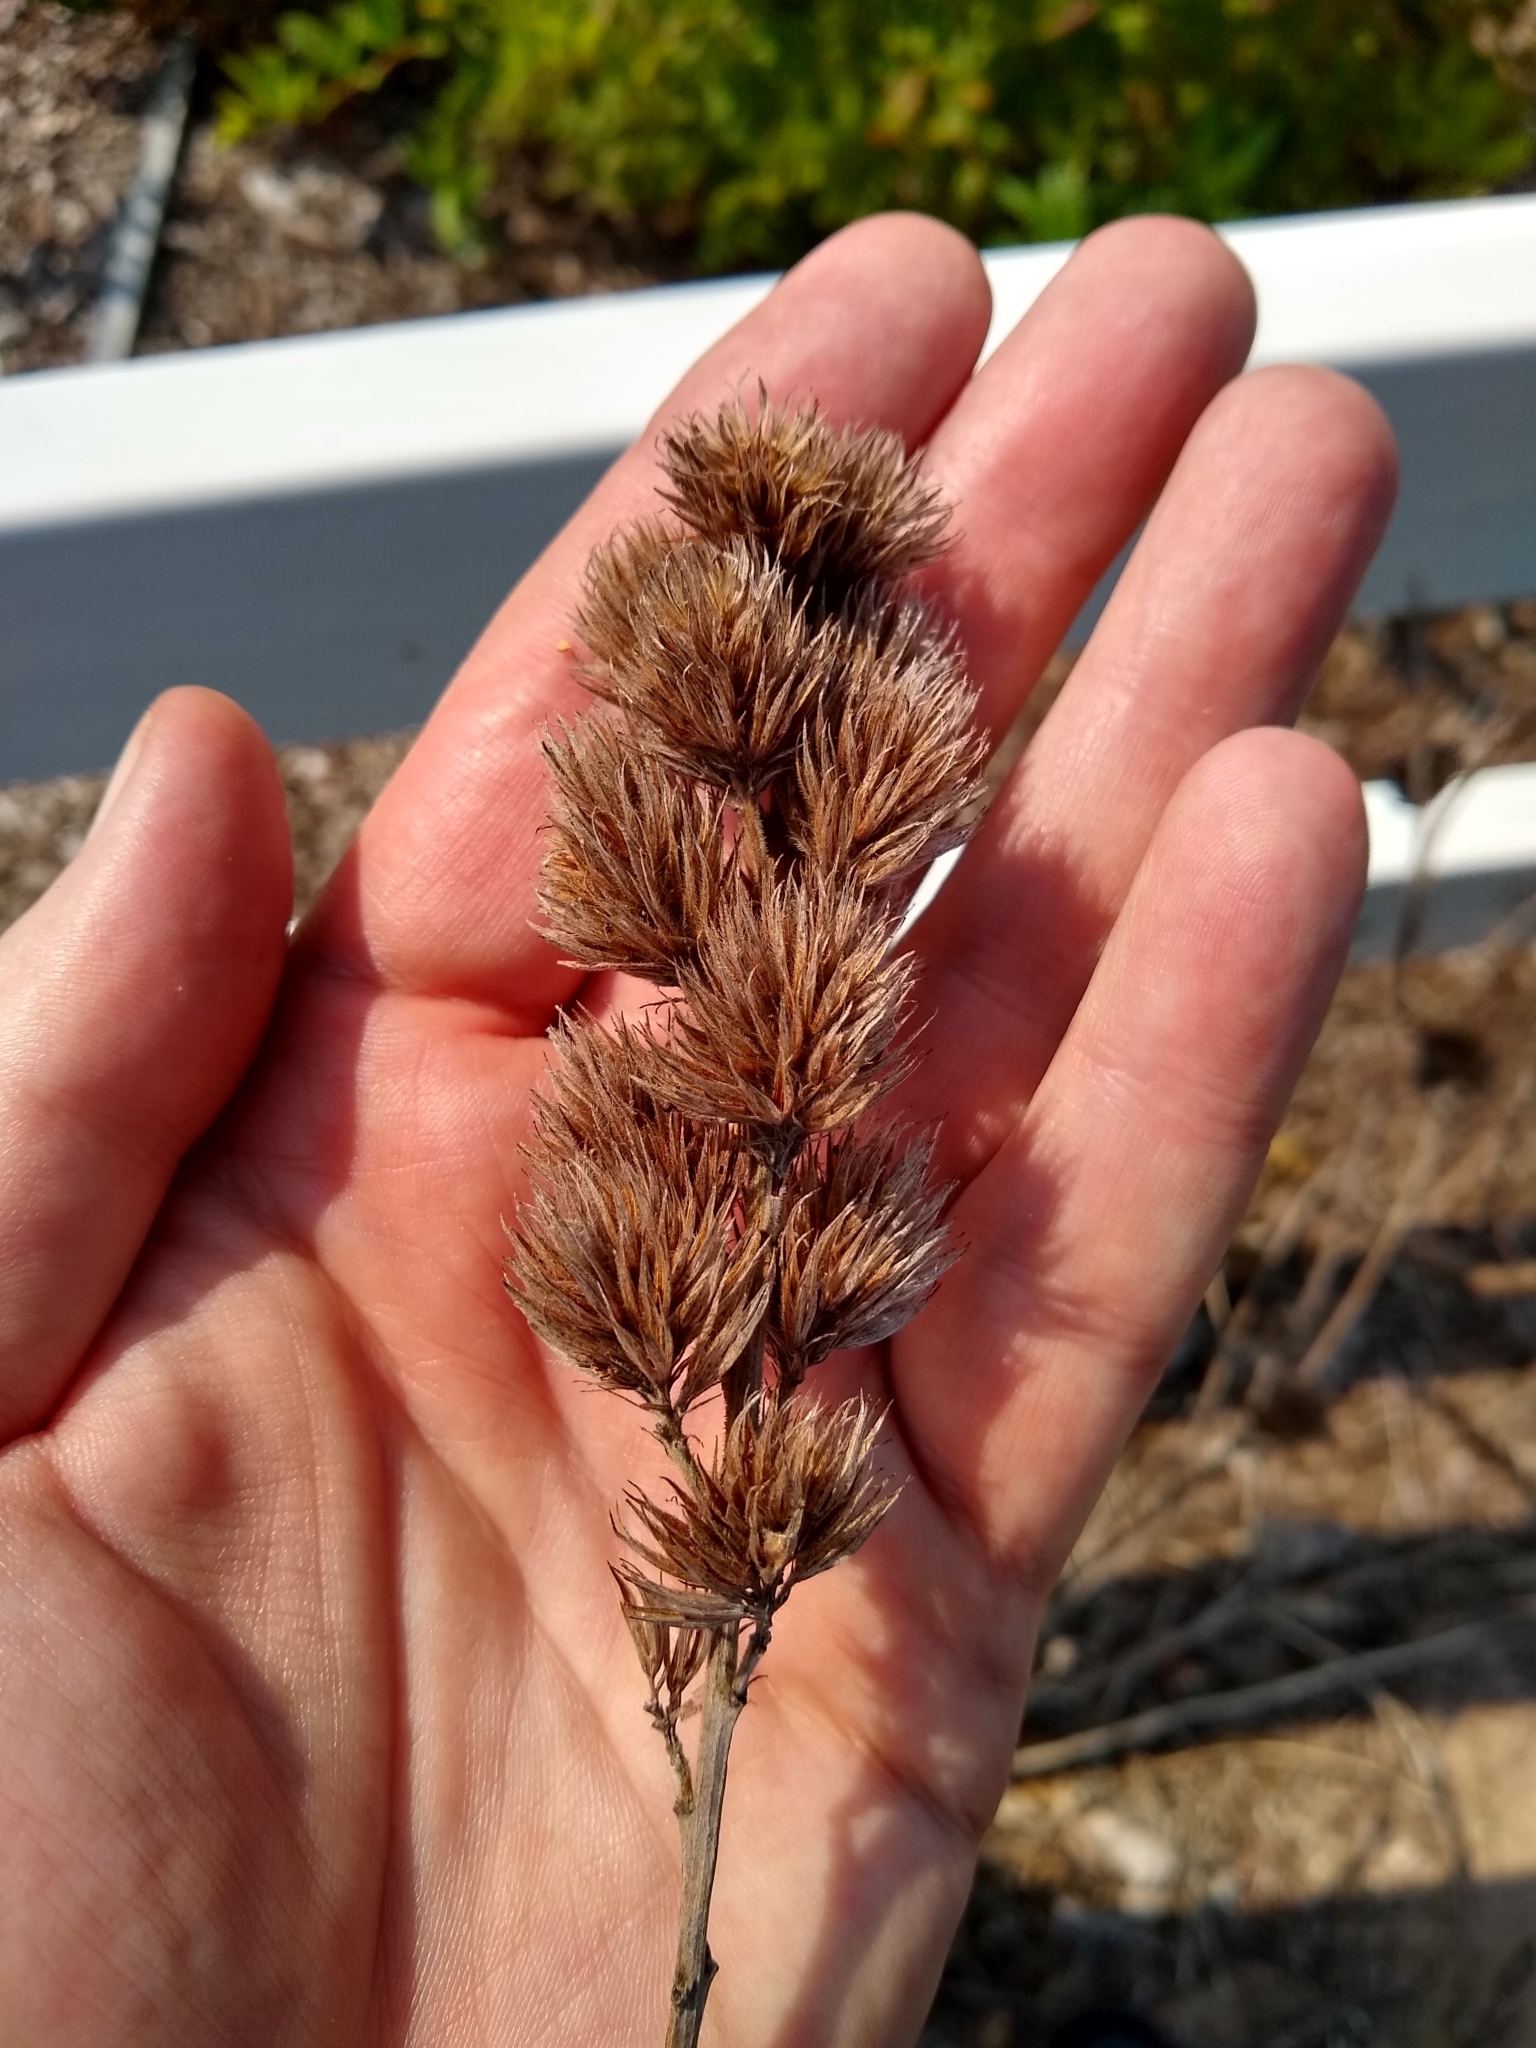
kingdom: Plantae
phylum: Tracheophyta
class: Magnoliopsida
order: Fabales
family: Fabaceae
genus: Lespedeza
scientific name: Lespedeza capitata
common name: Dusty clover
